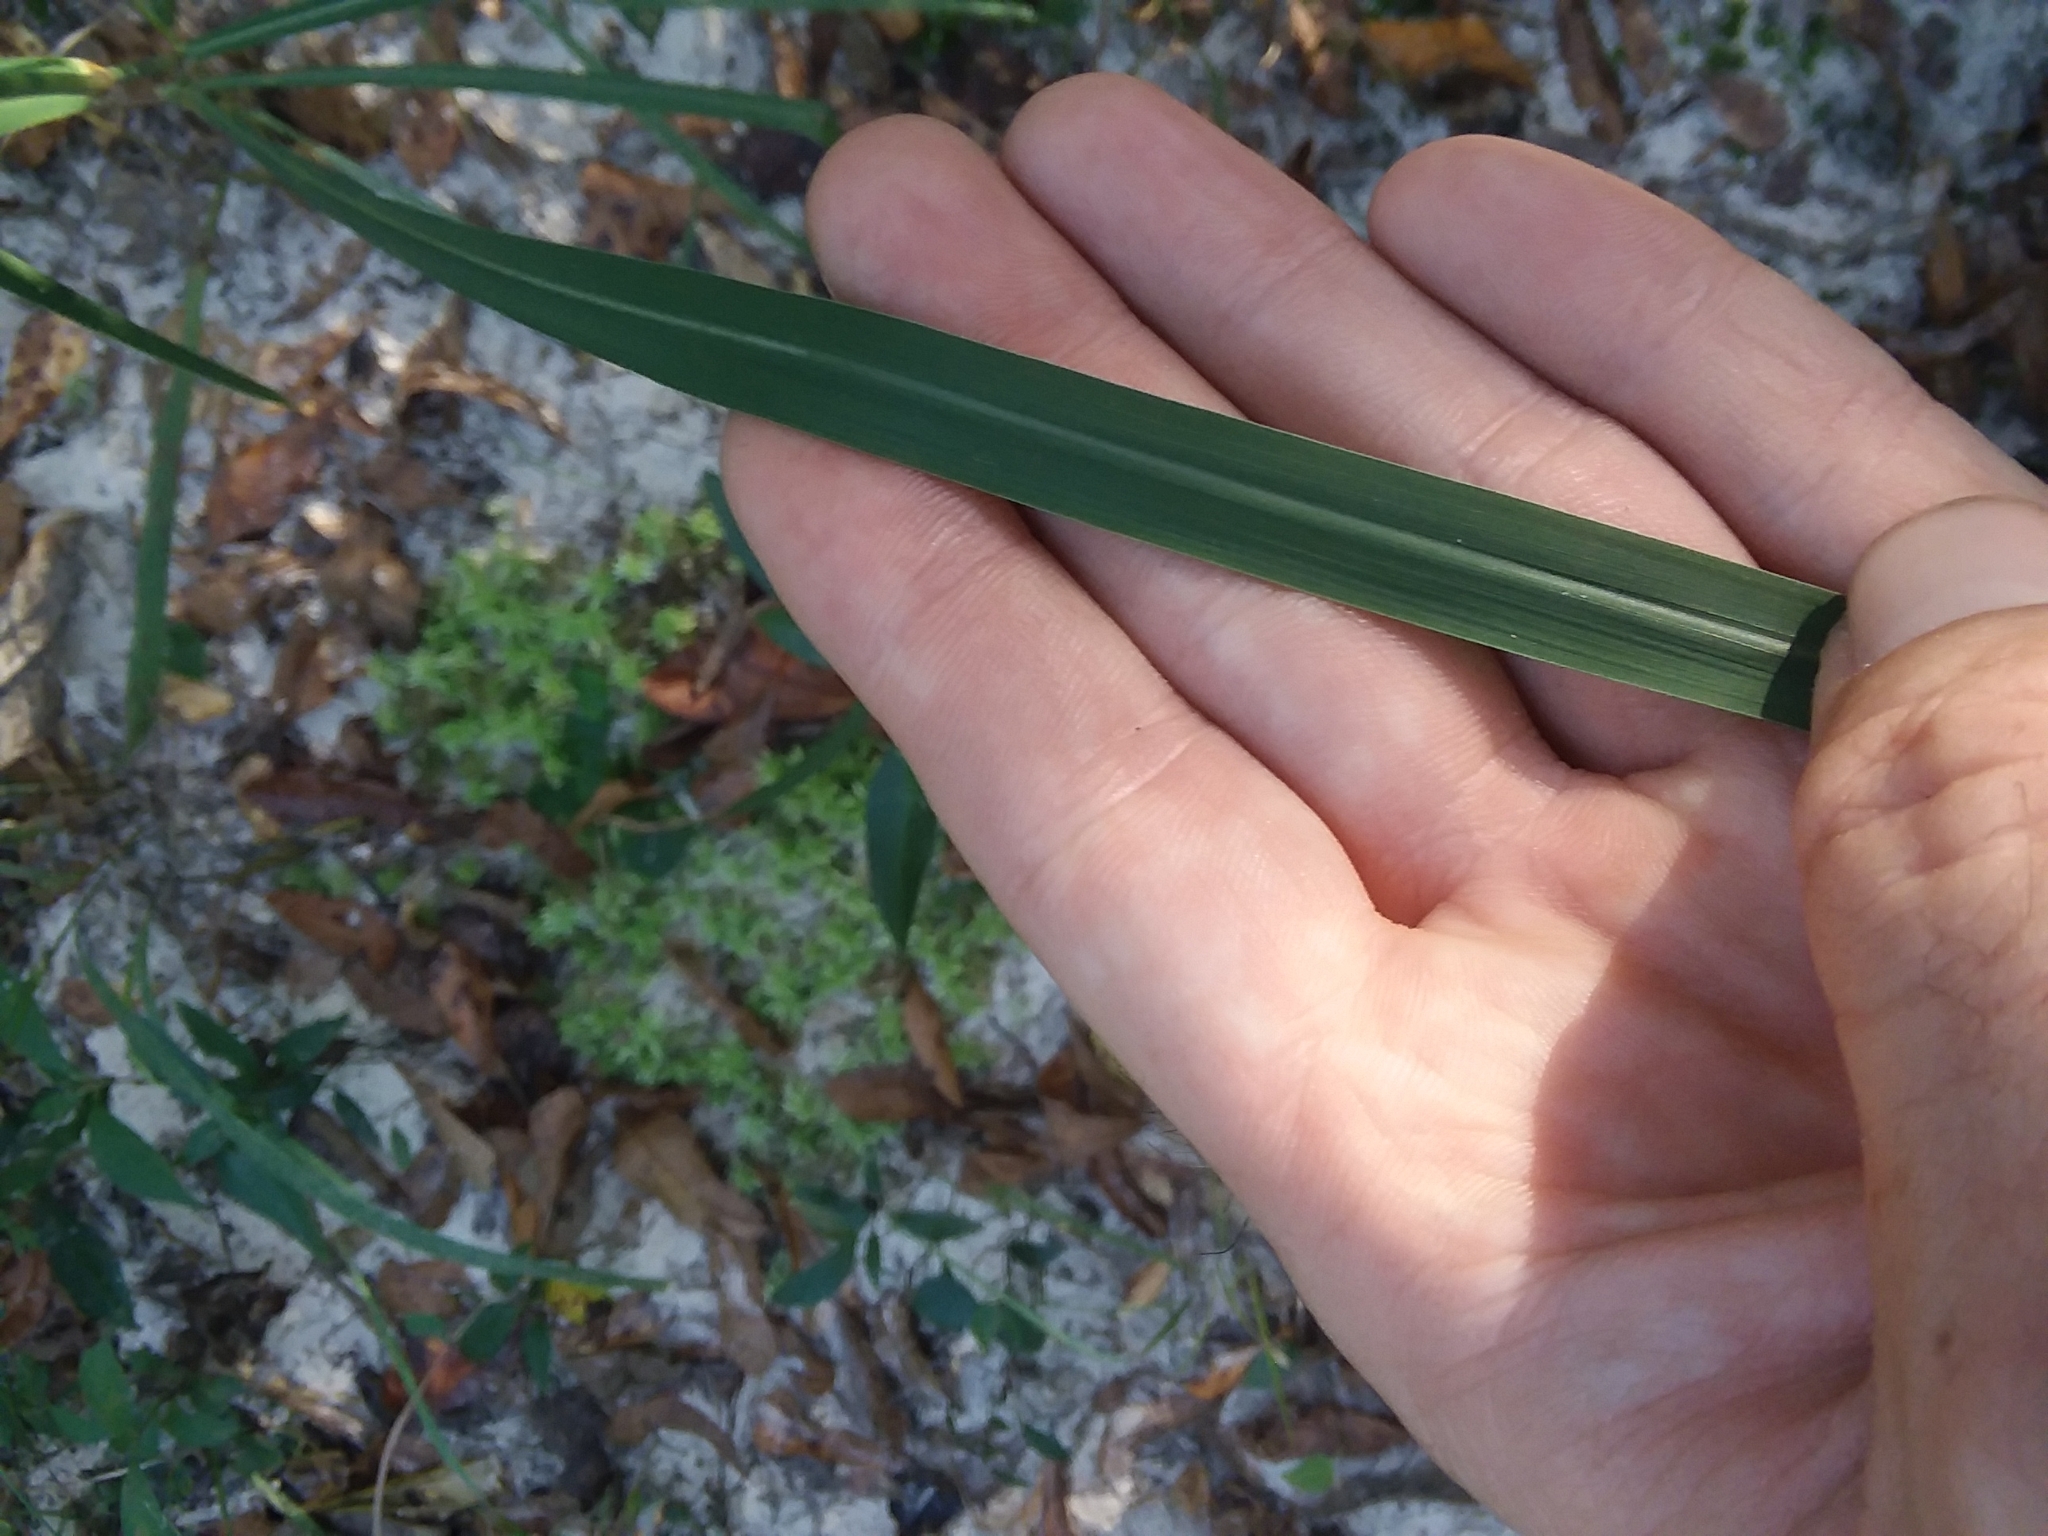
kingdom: Plantae
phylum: Tracheophyta
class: Liliopsida
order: Poales
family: Poaceae
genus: Erianthus
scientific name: Erianthus strictus
